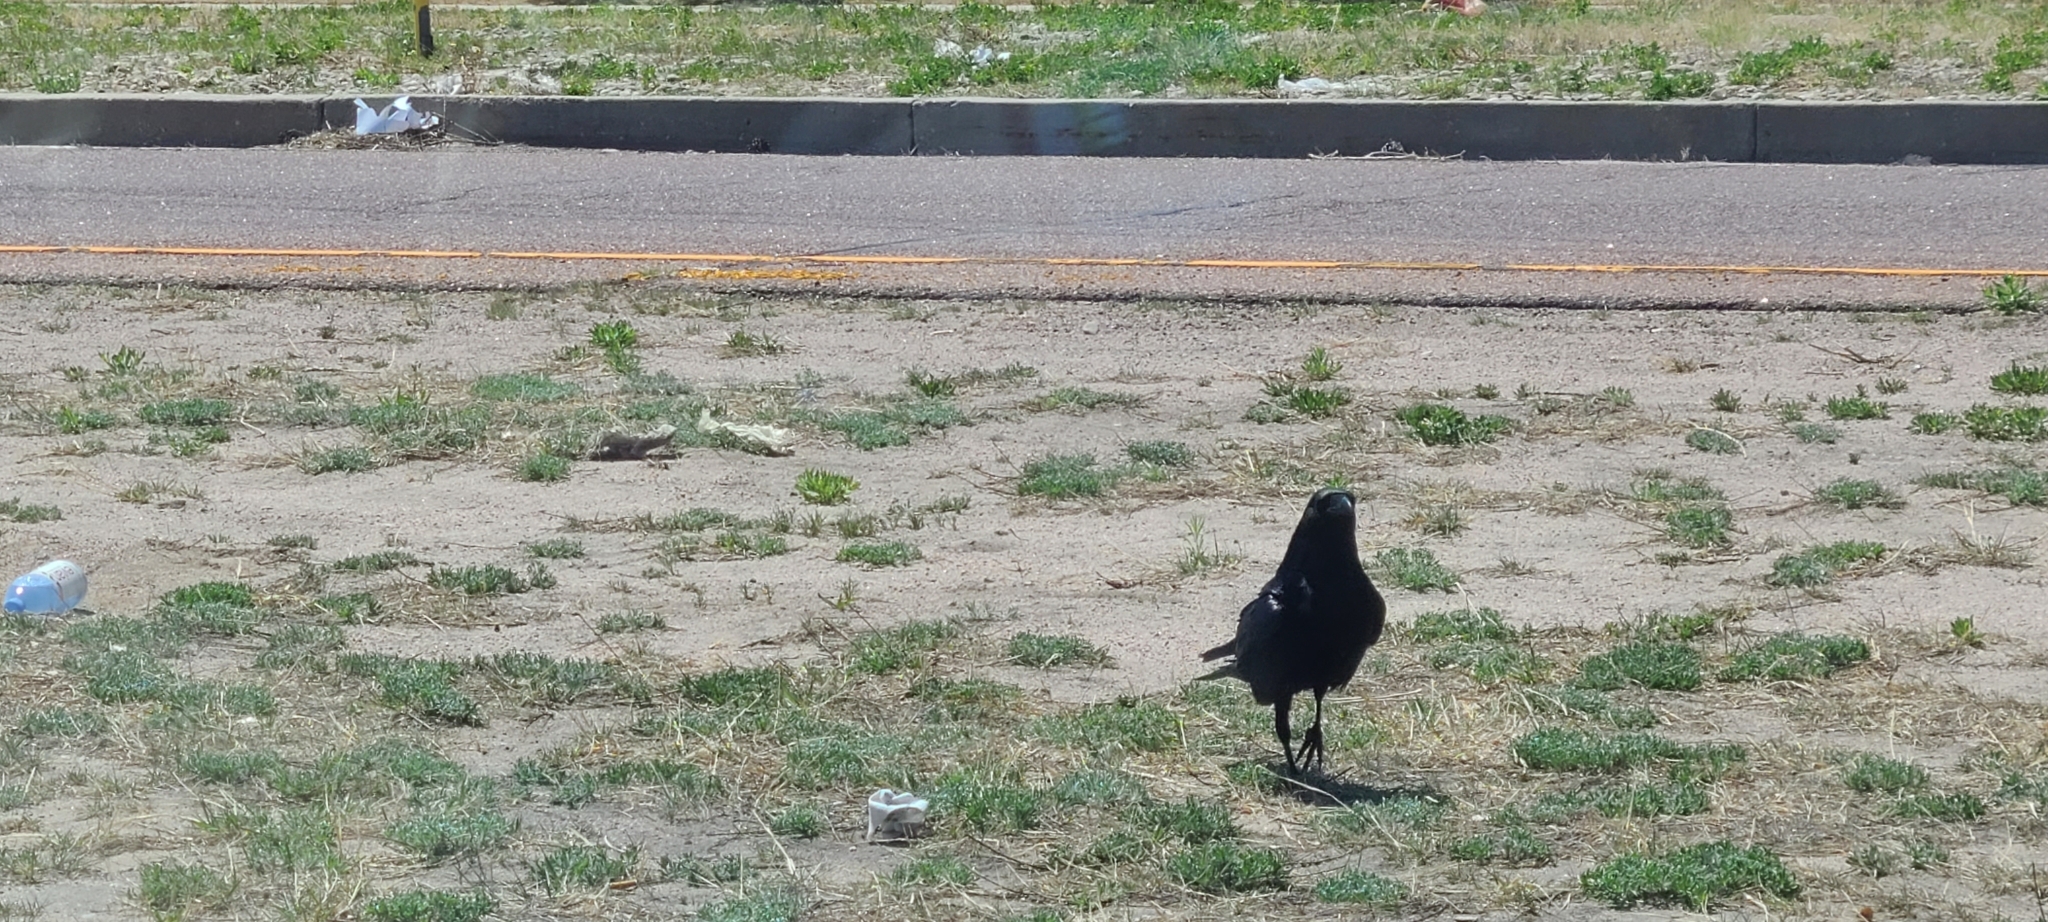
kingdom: Animalia
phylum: Chordata
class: Aves
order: Passeriformes
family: Corvidae
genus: Corvus
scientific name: Corvus brachyrhynchos
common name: American crow
